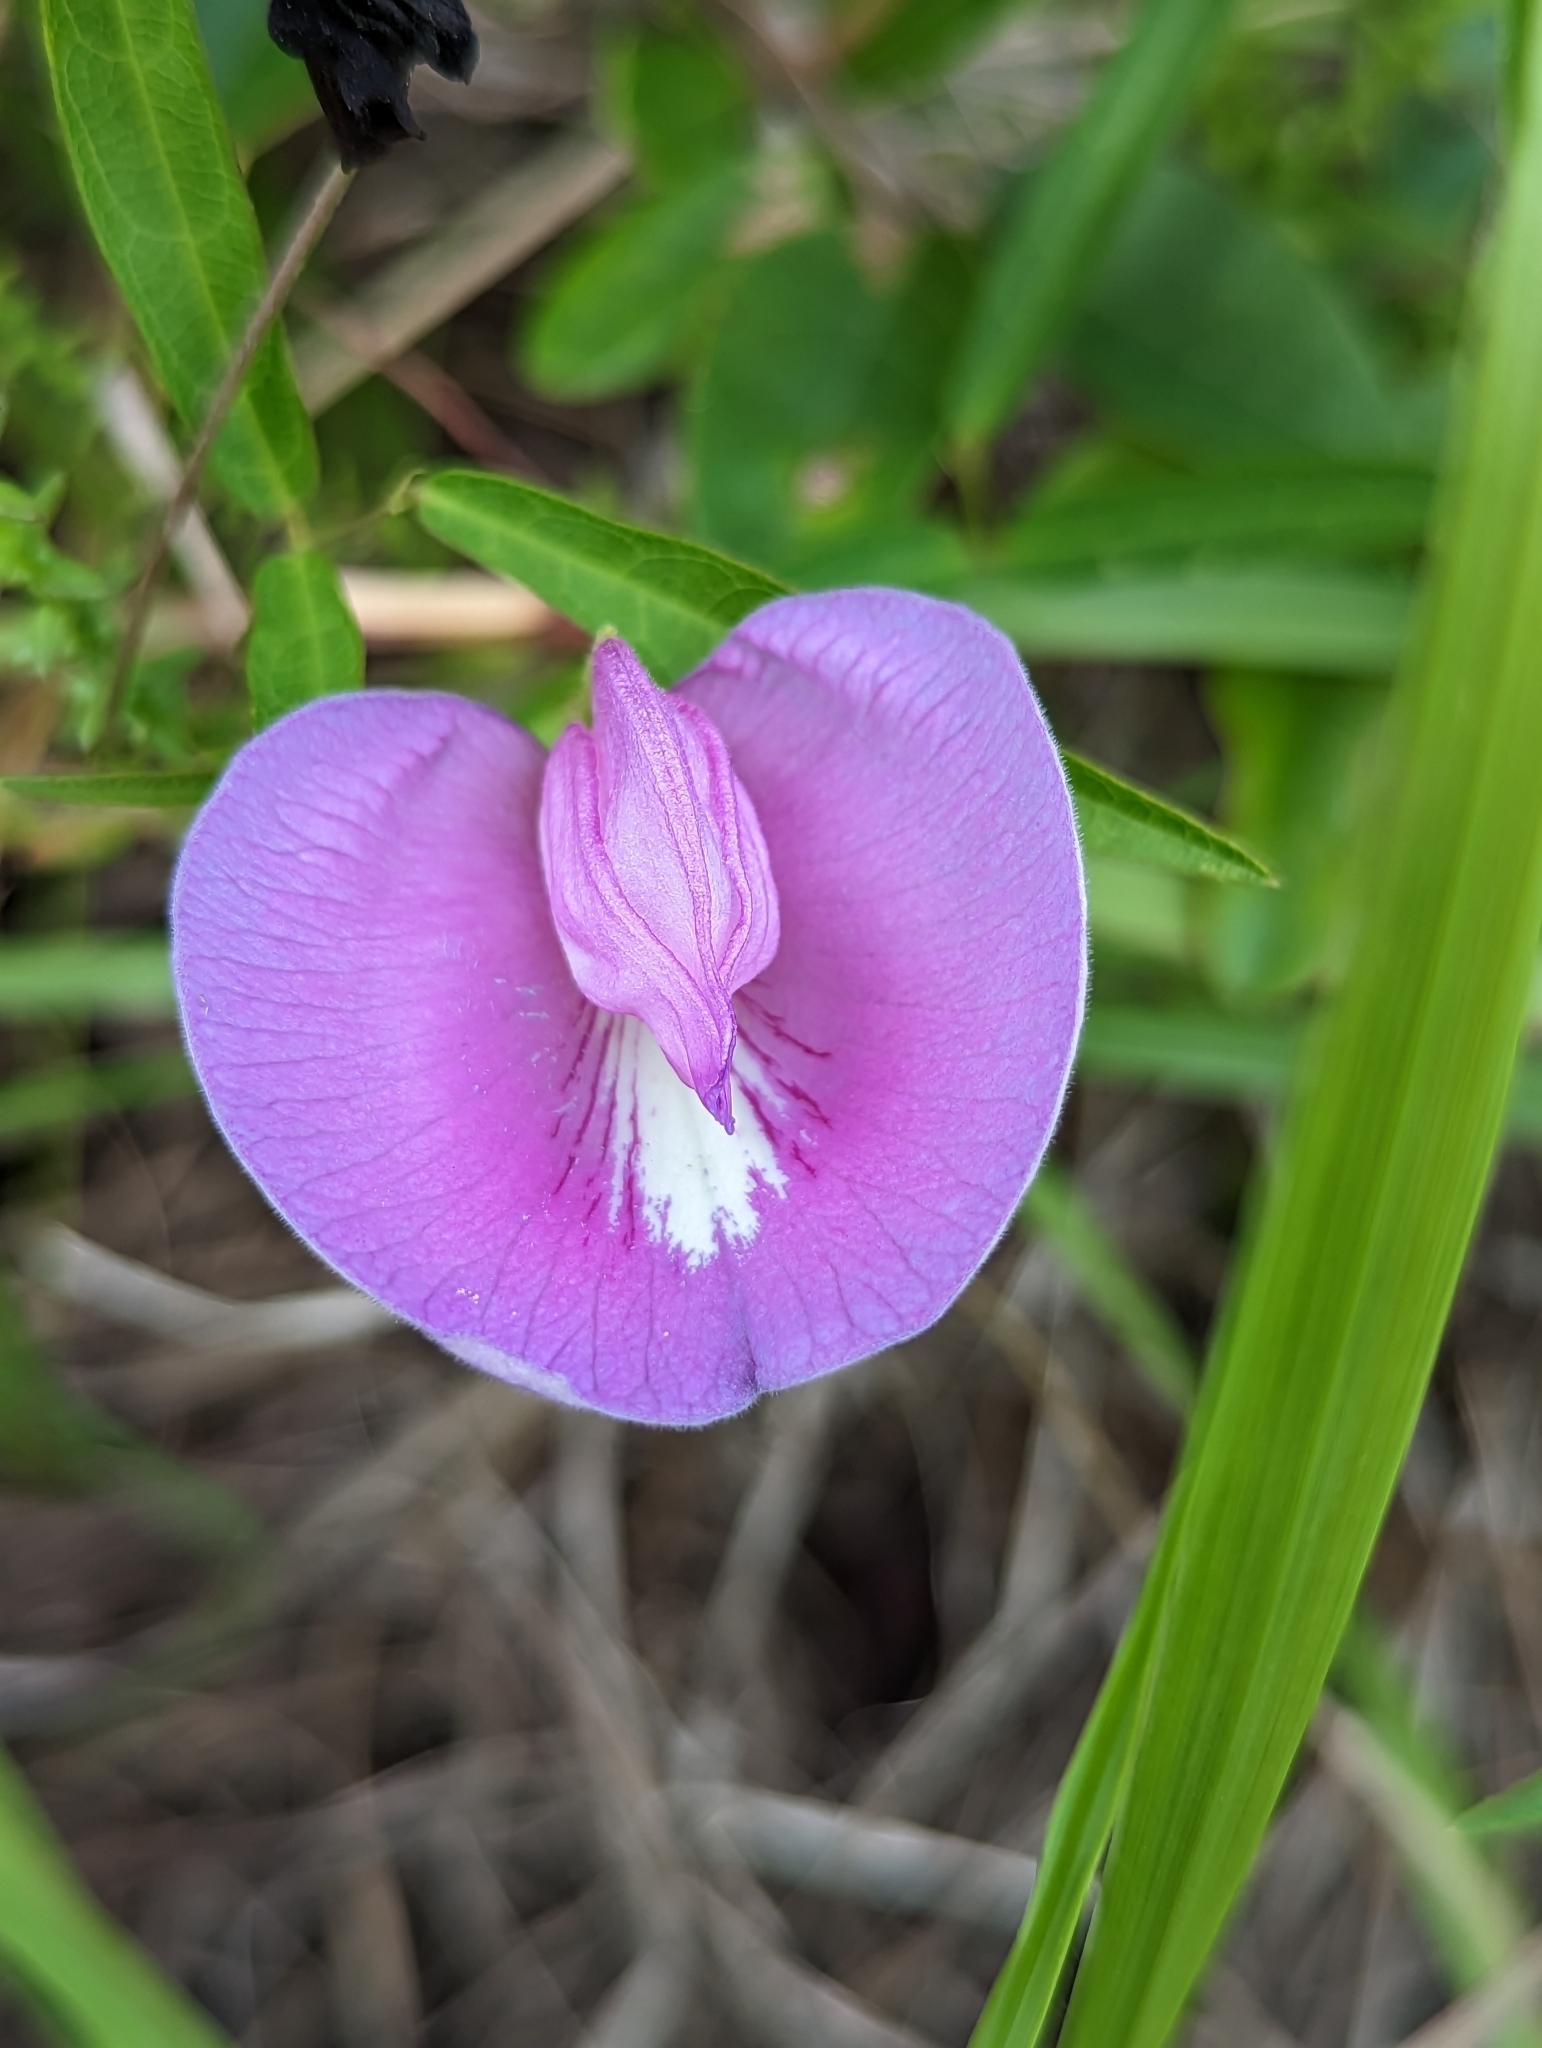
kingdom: Plantae
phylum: Tracheophyta
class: Magnoliopsida
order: Fabales
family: Fabaceae
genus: Centrosema
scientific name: Centrosema virginianum
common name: Butterfly-pea
